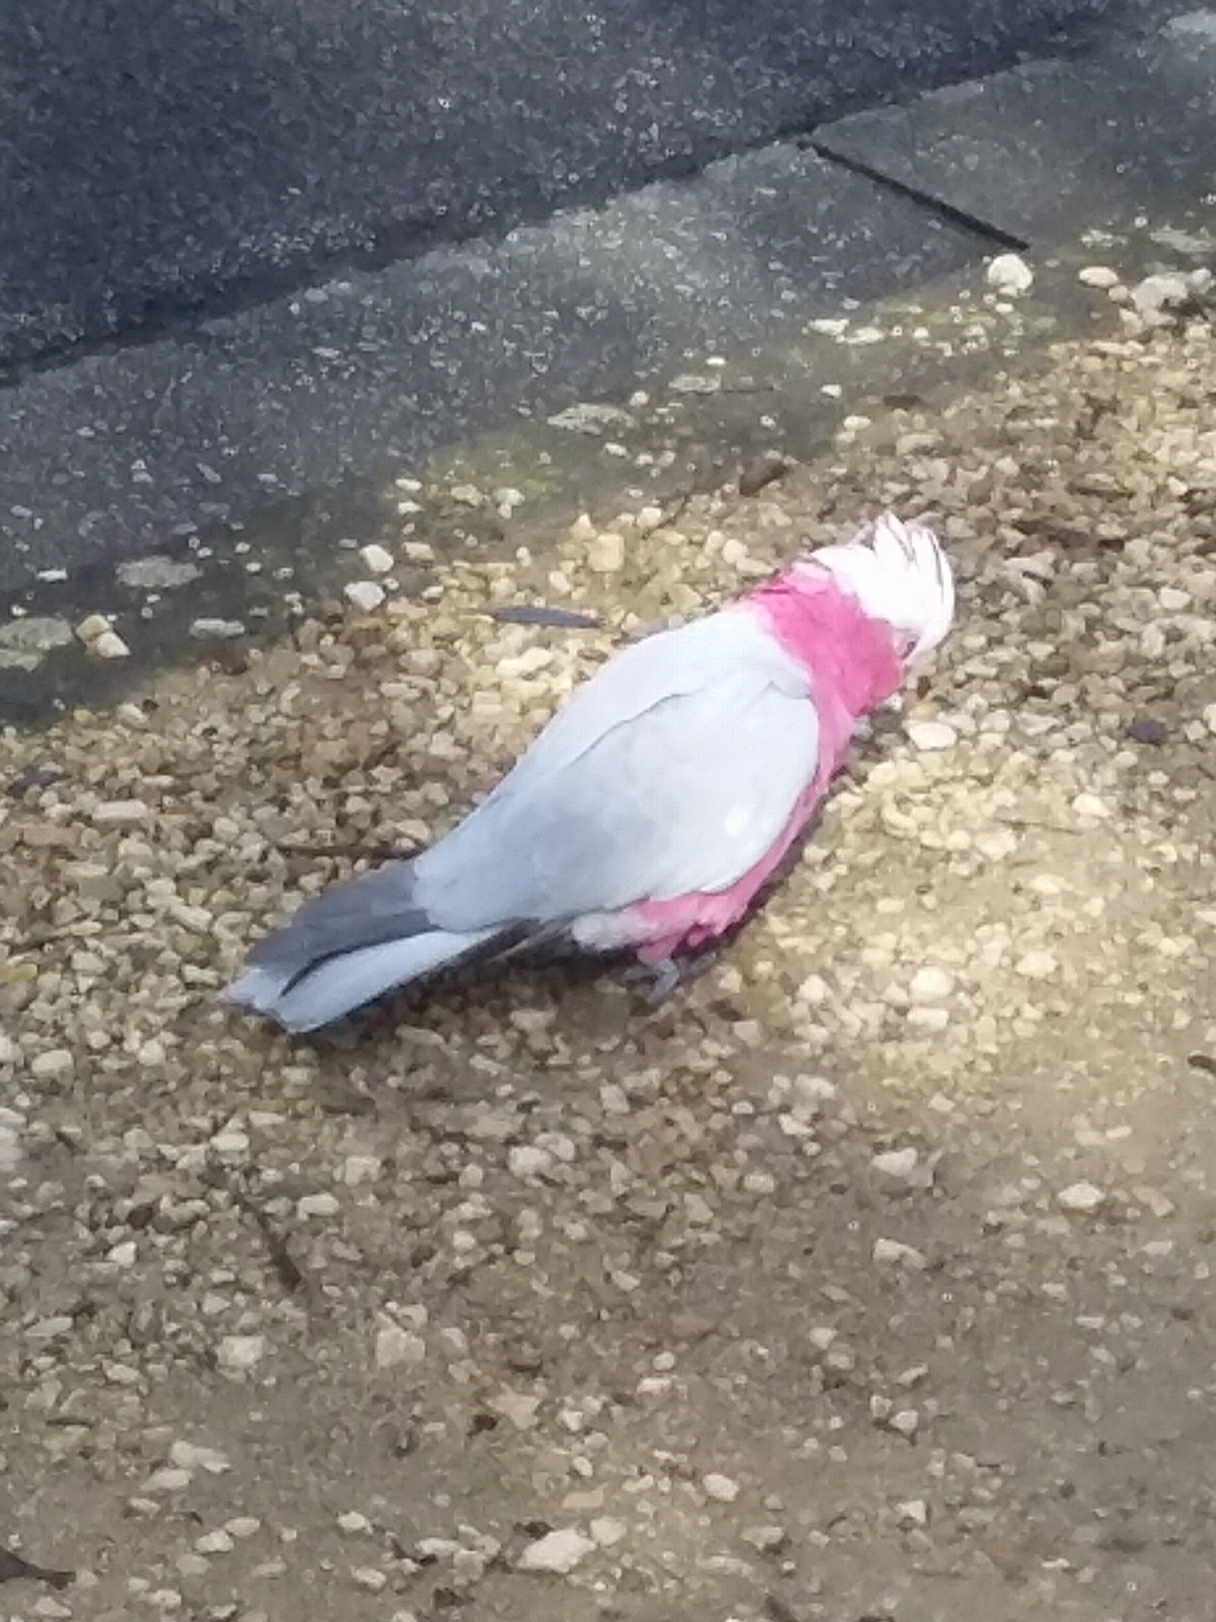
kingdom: Animalia
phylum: Chordata
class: Aves
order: Psittaciformes
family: Psittacidae
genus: Eolophus
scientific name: Eolophus roseicapilla
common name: Galah
